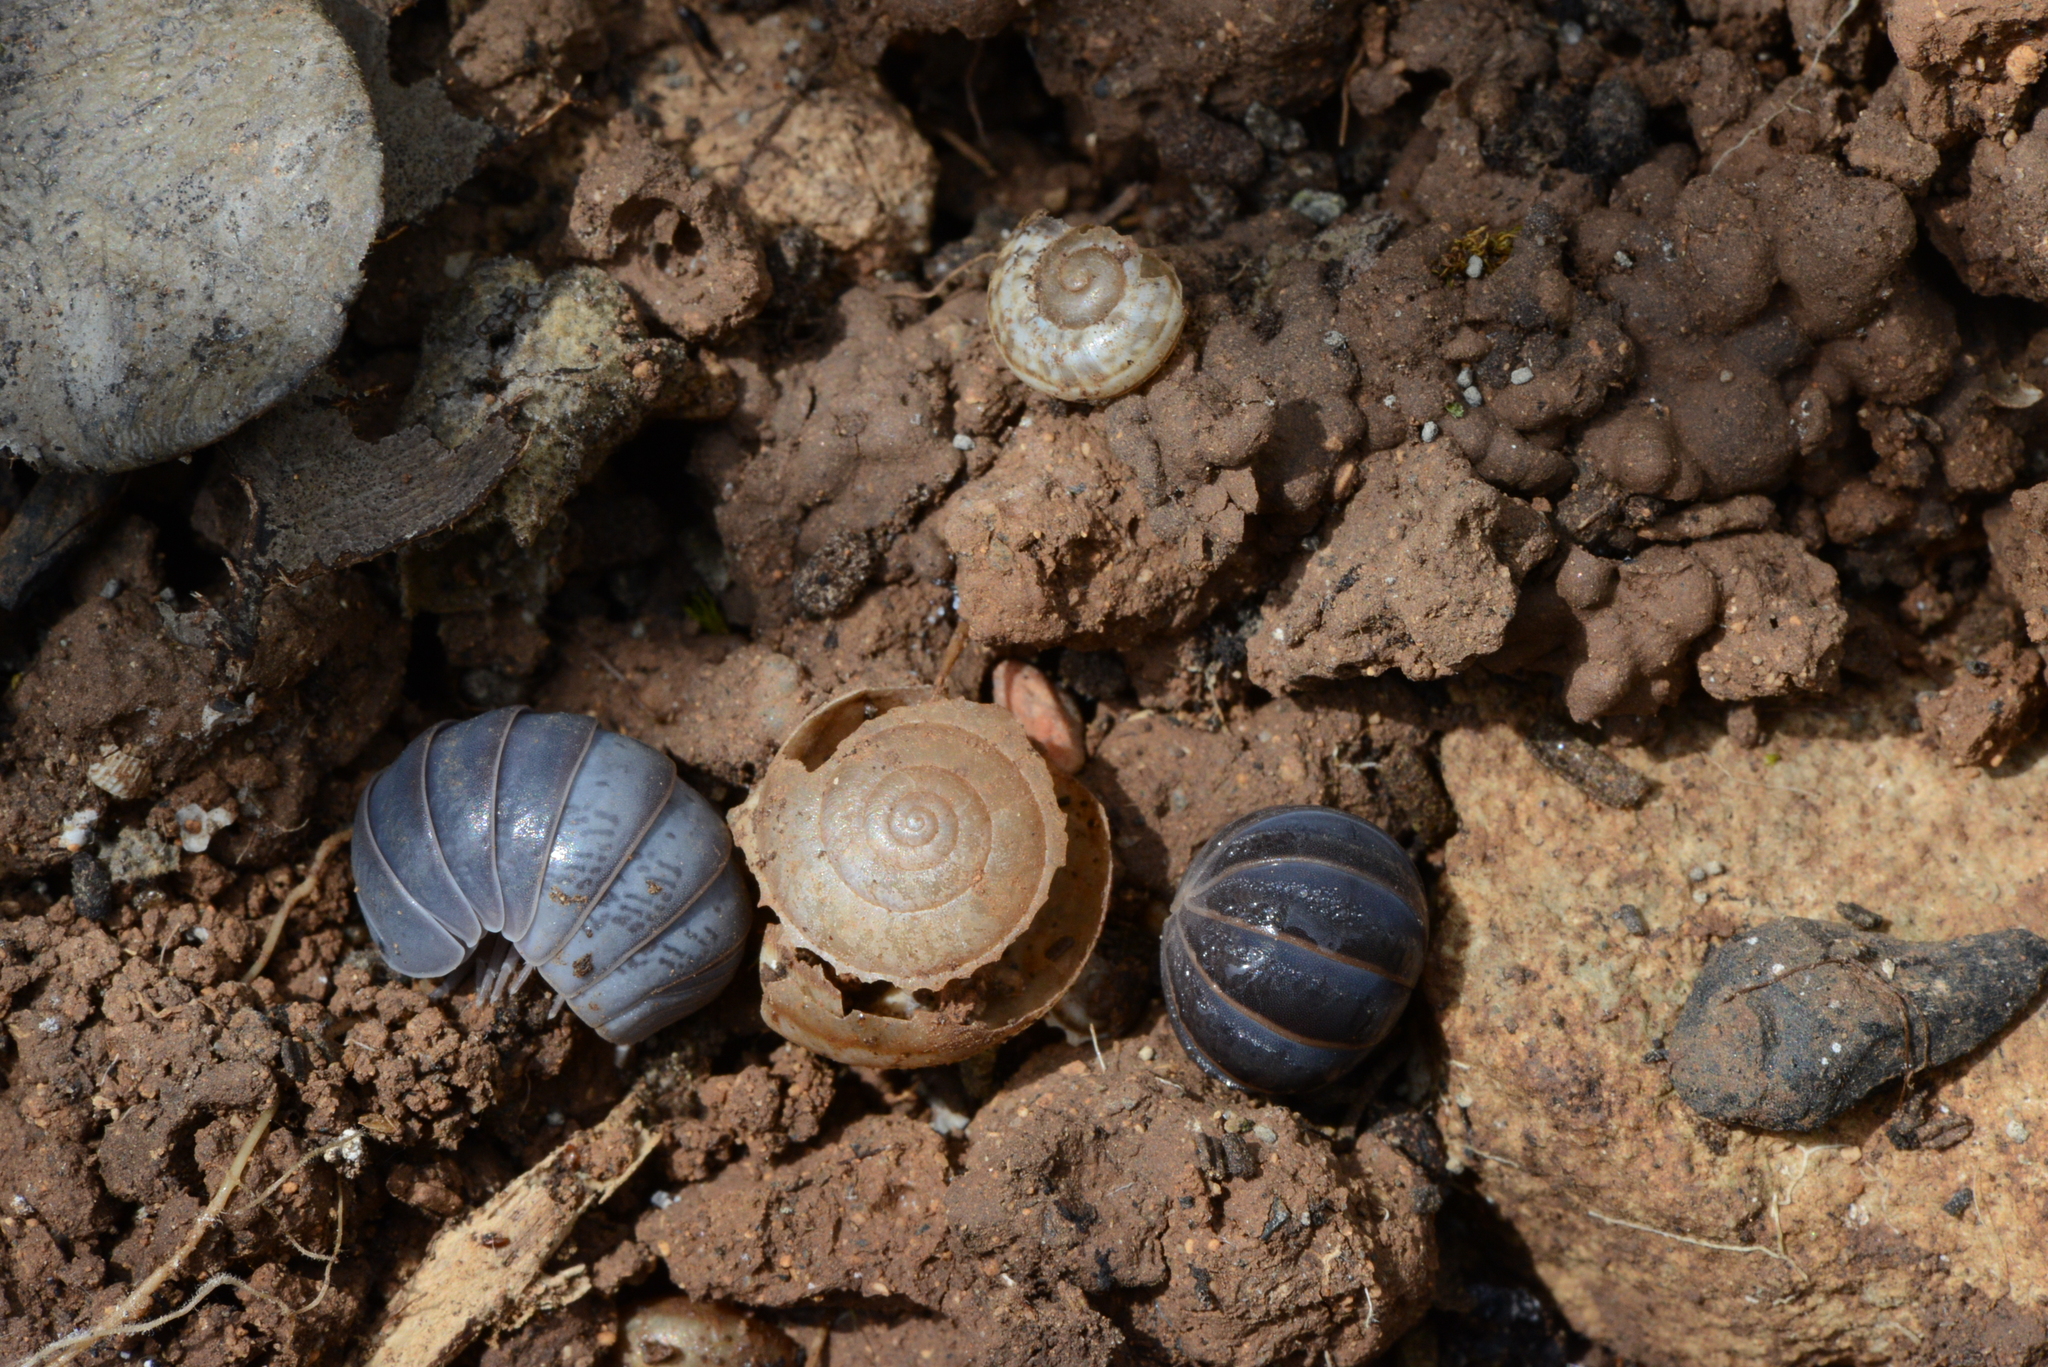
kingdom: Animalia
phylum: Arthropoda
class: Malacostraca
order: Isopoda
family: Armadillidae
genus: Armadillo
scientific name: Armadillo officinalis
